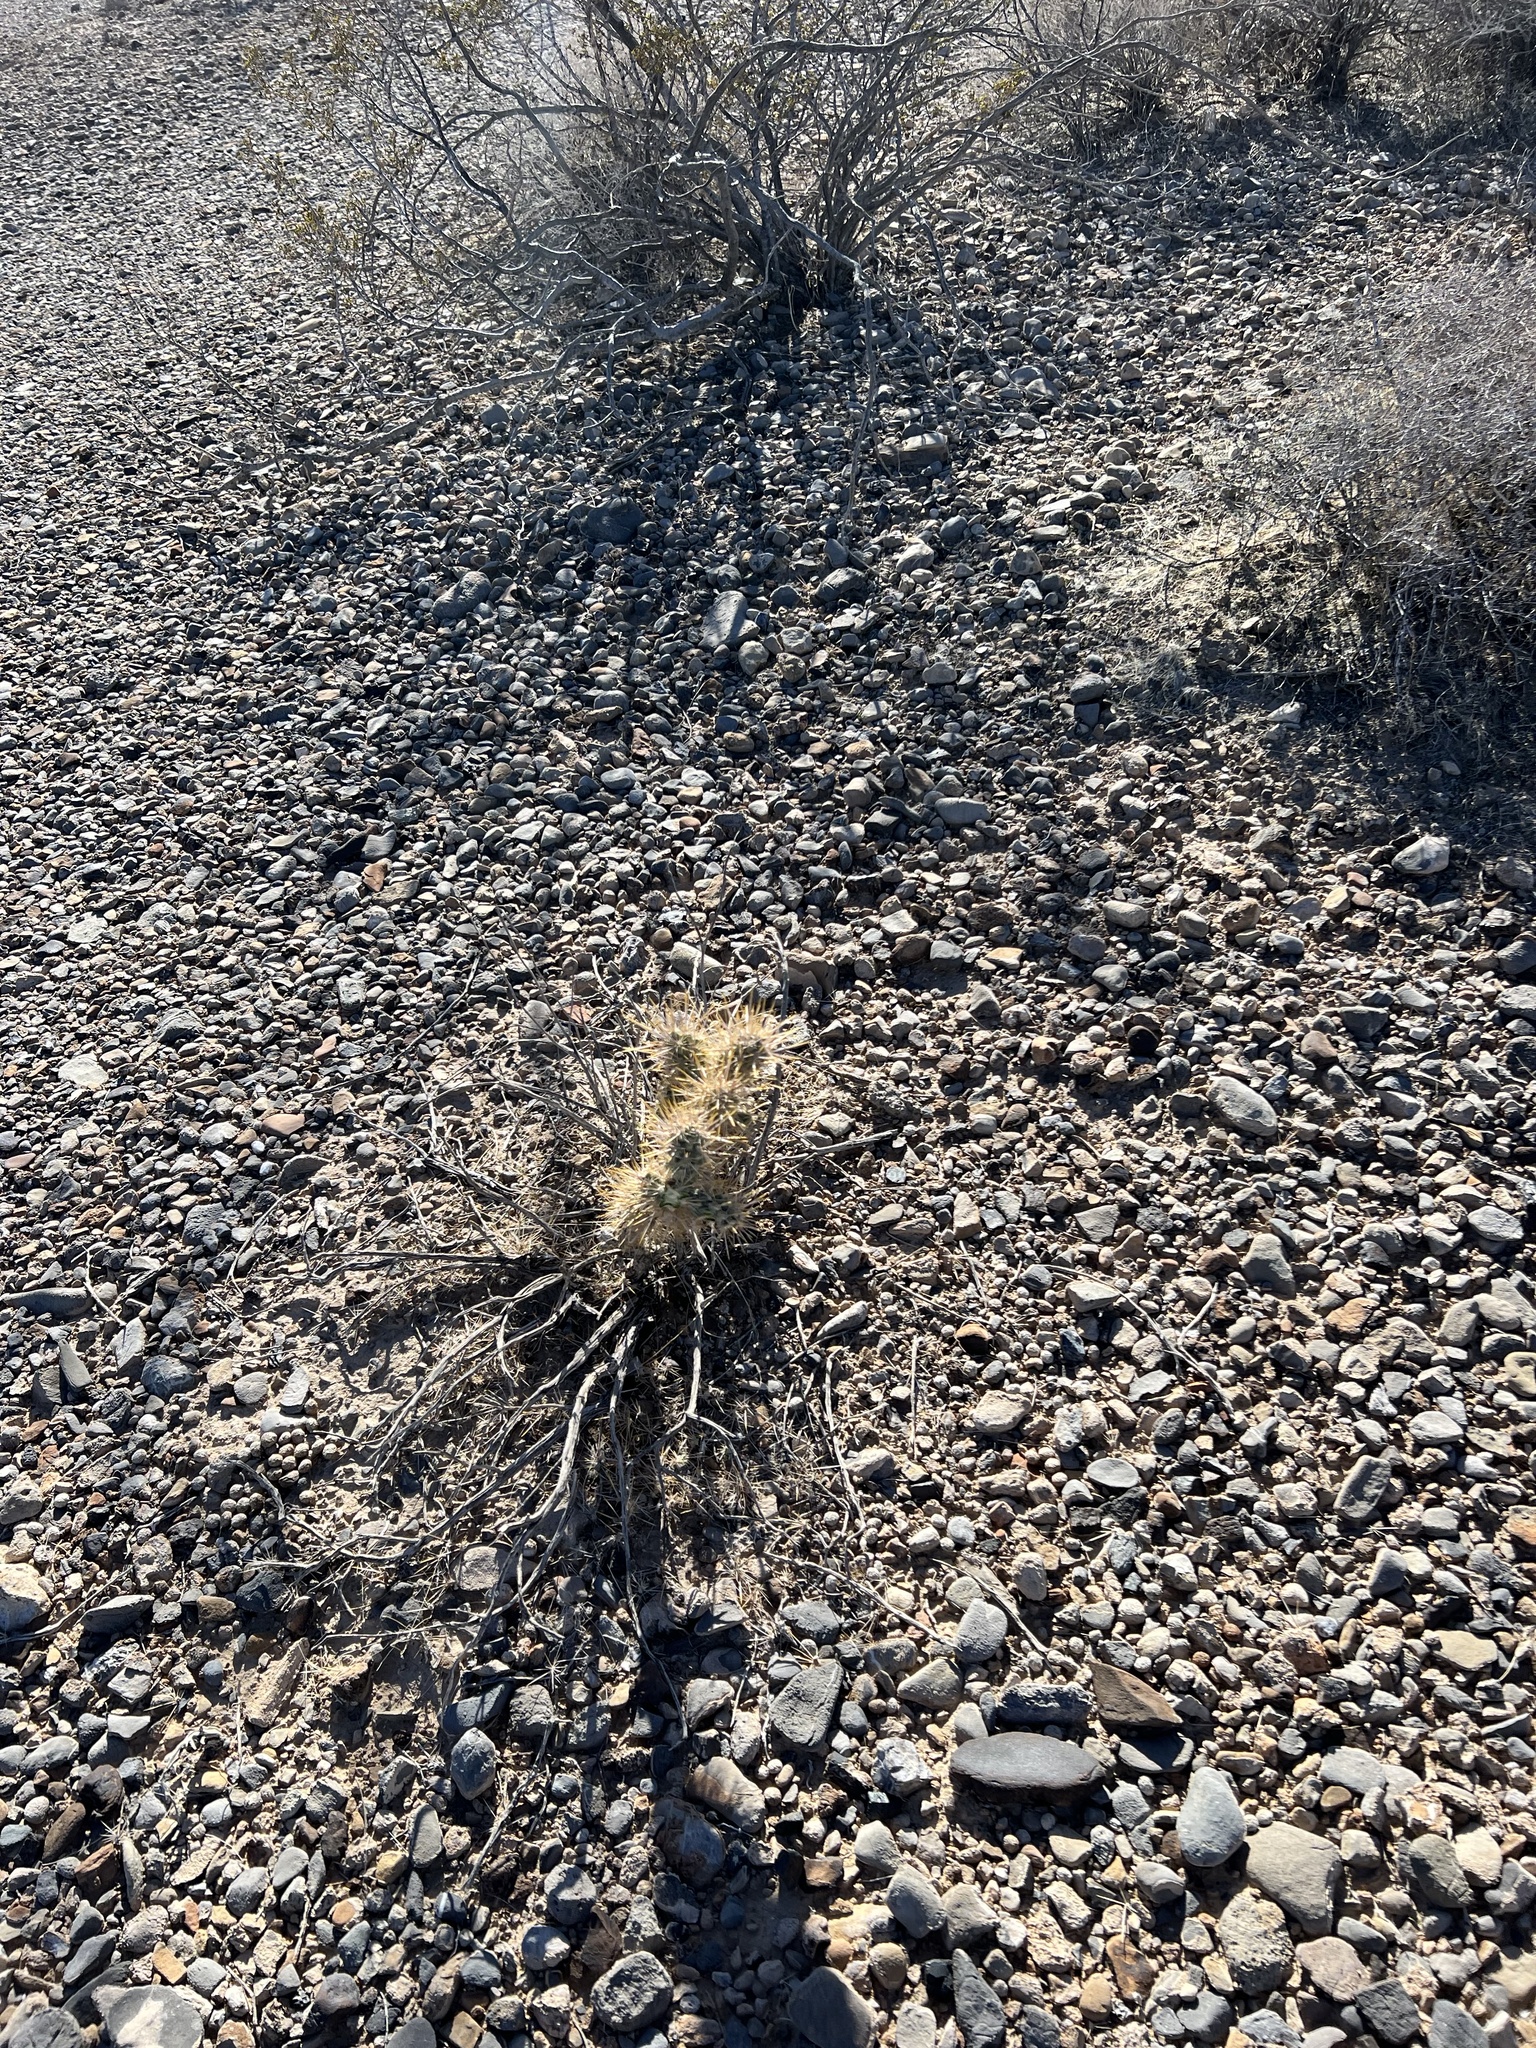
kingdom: Plantae
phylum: Tracheophyta
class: Magnoliopsida
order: Caryophyllales
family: Cactaceae
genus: Cylindropuntia
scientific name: Cylindropuntia echinocarpa
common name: Ground cholla
